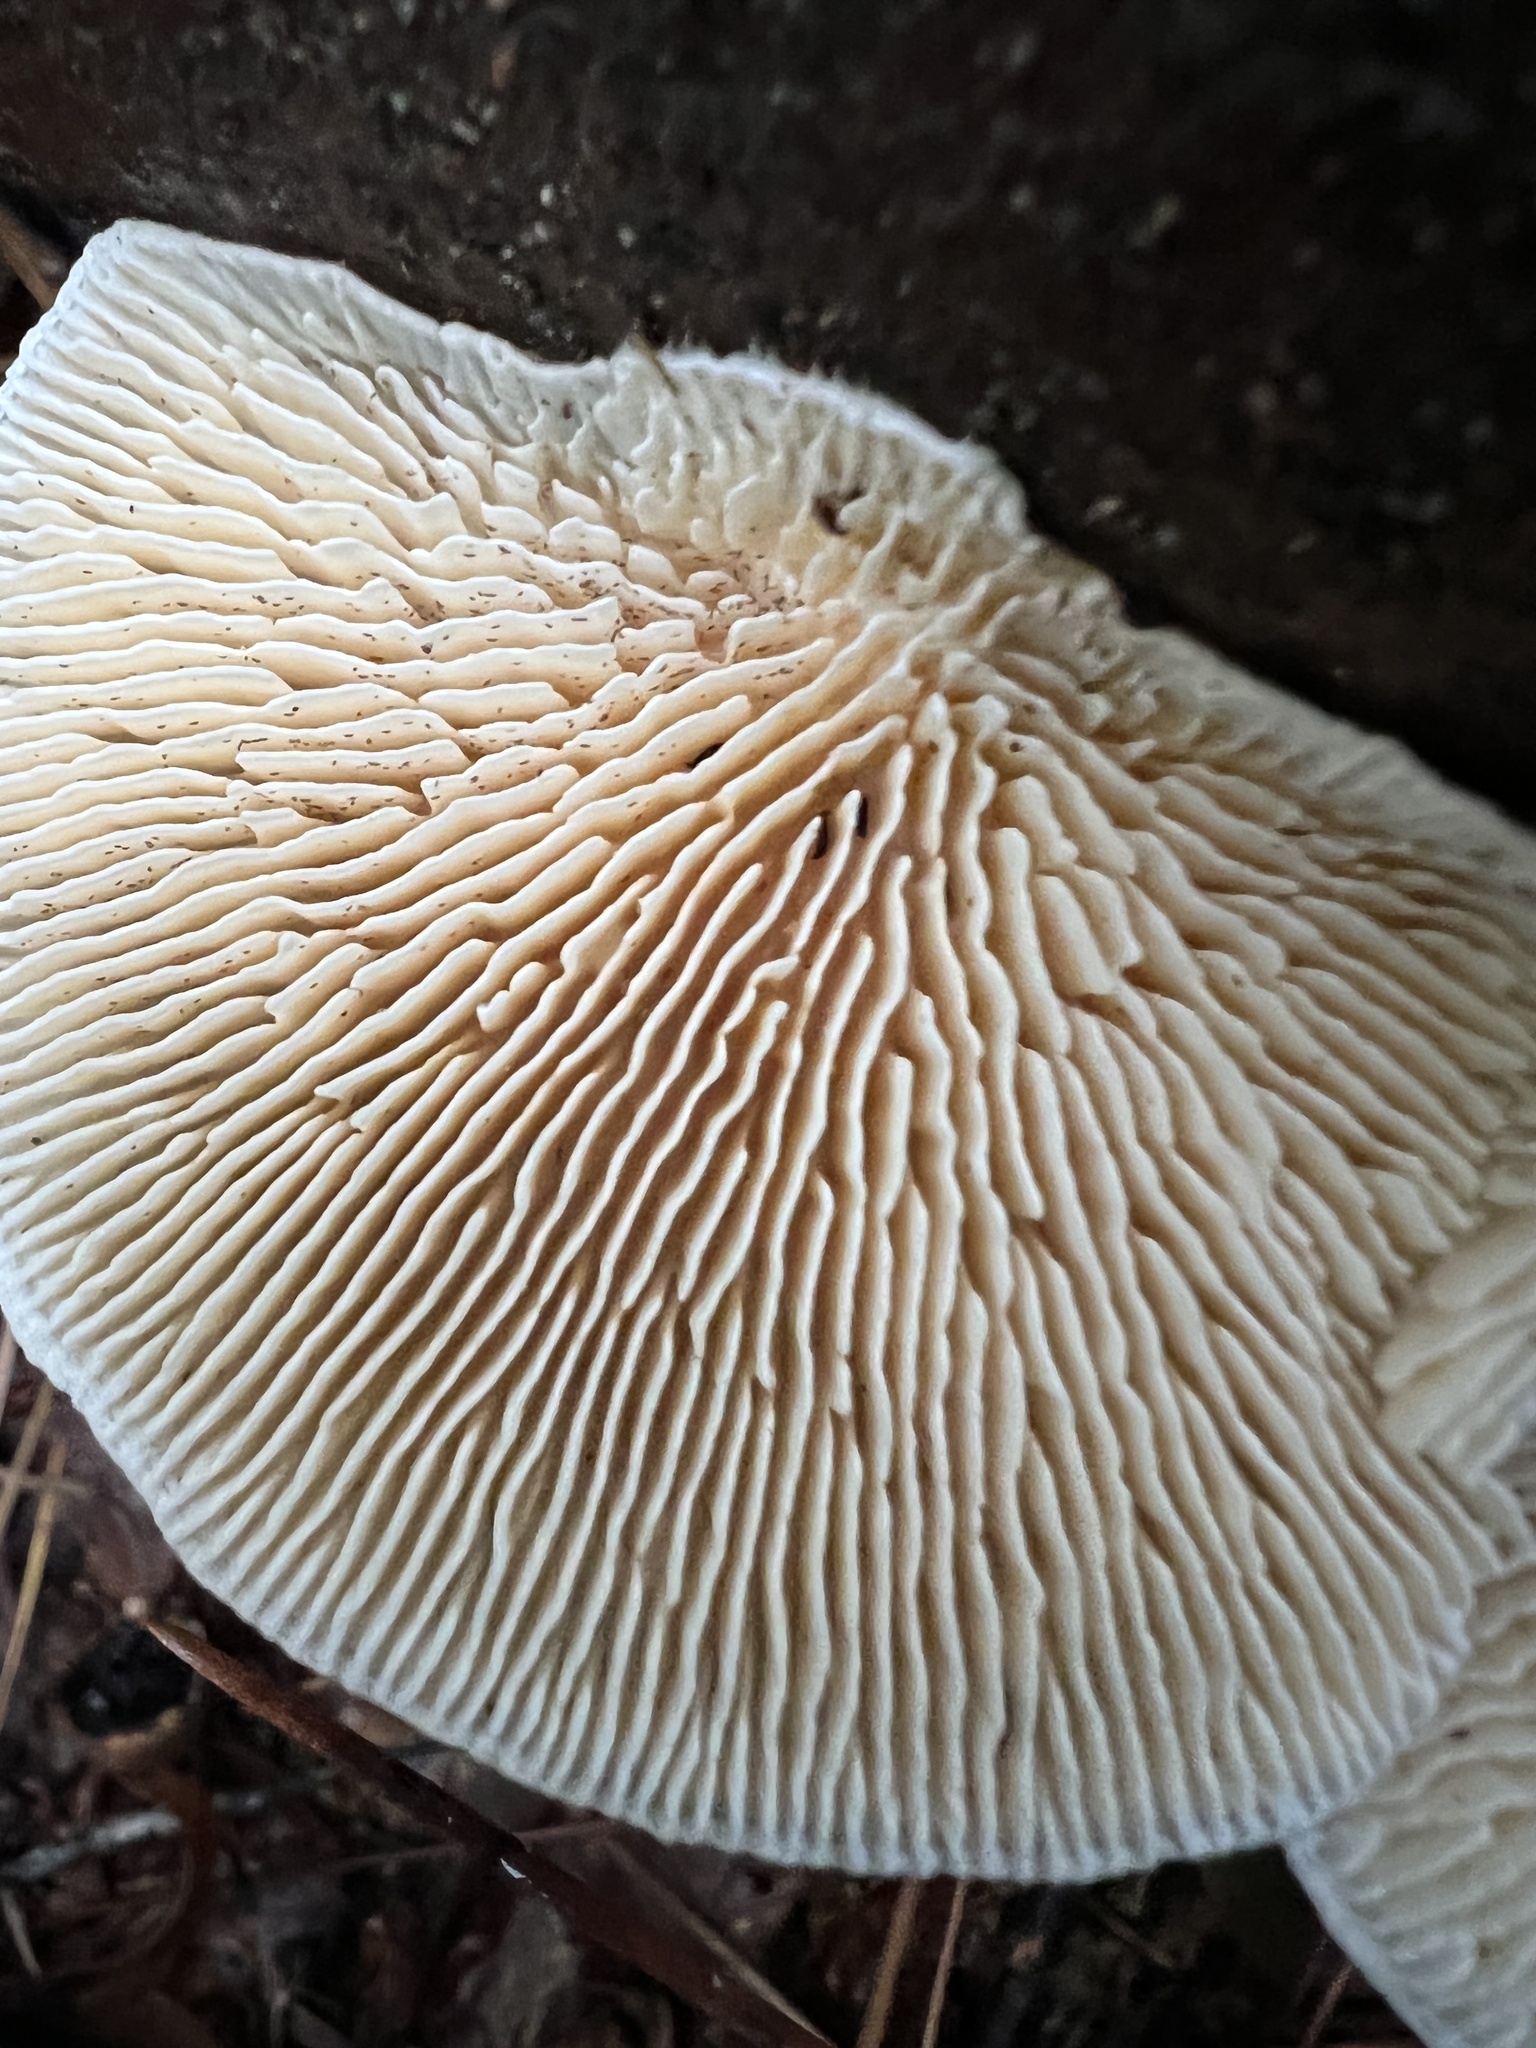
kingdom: Fungi
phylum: Basidiomycota
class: Agaricomycetes
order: Polyporales
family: Polyporaceae
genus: Lenzites
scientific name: Lenzites betulinus
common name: Birch mazegill
